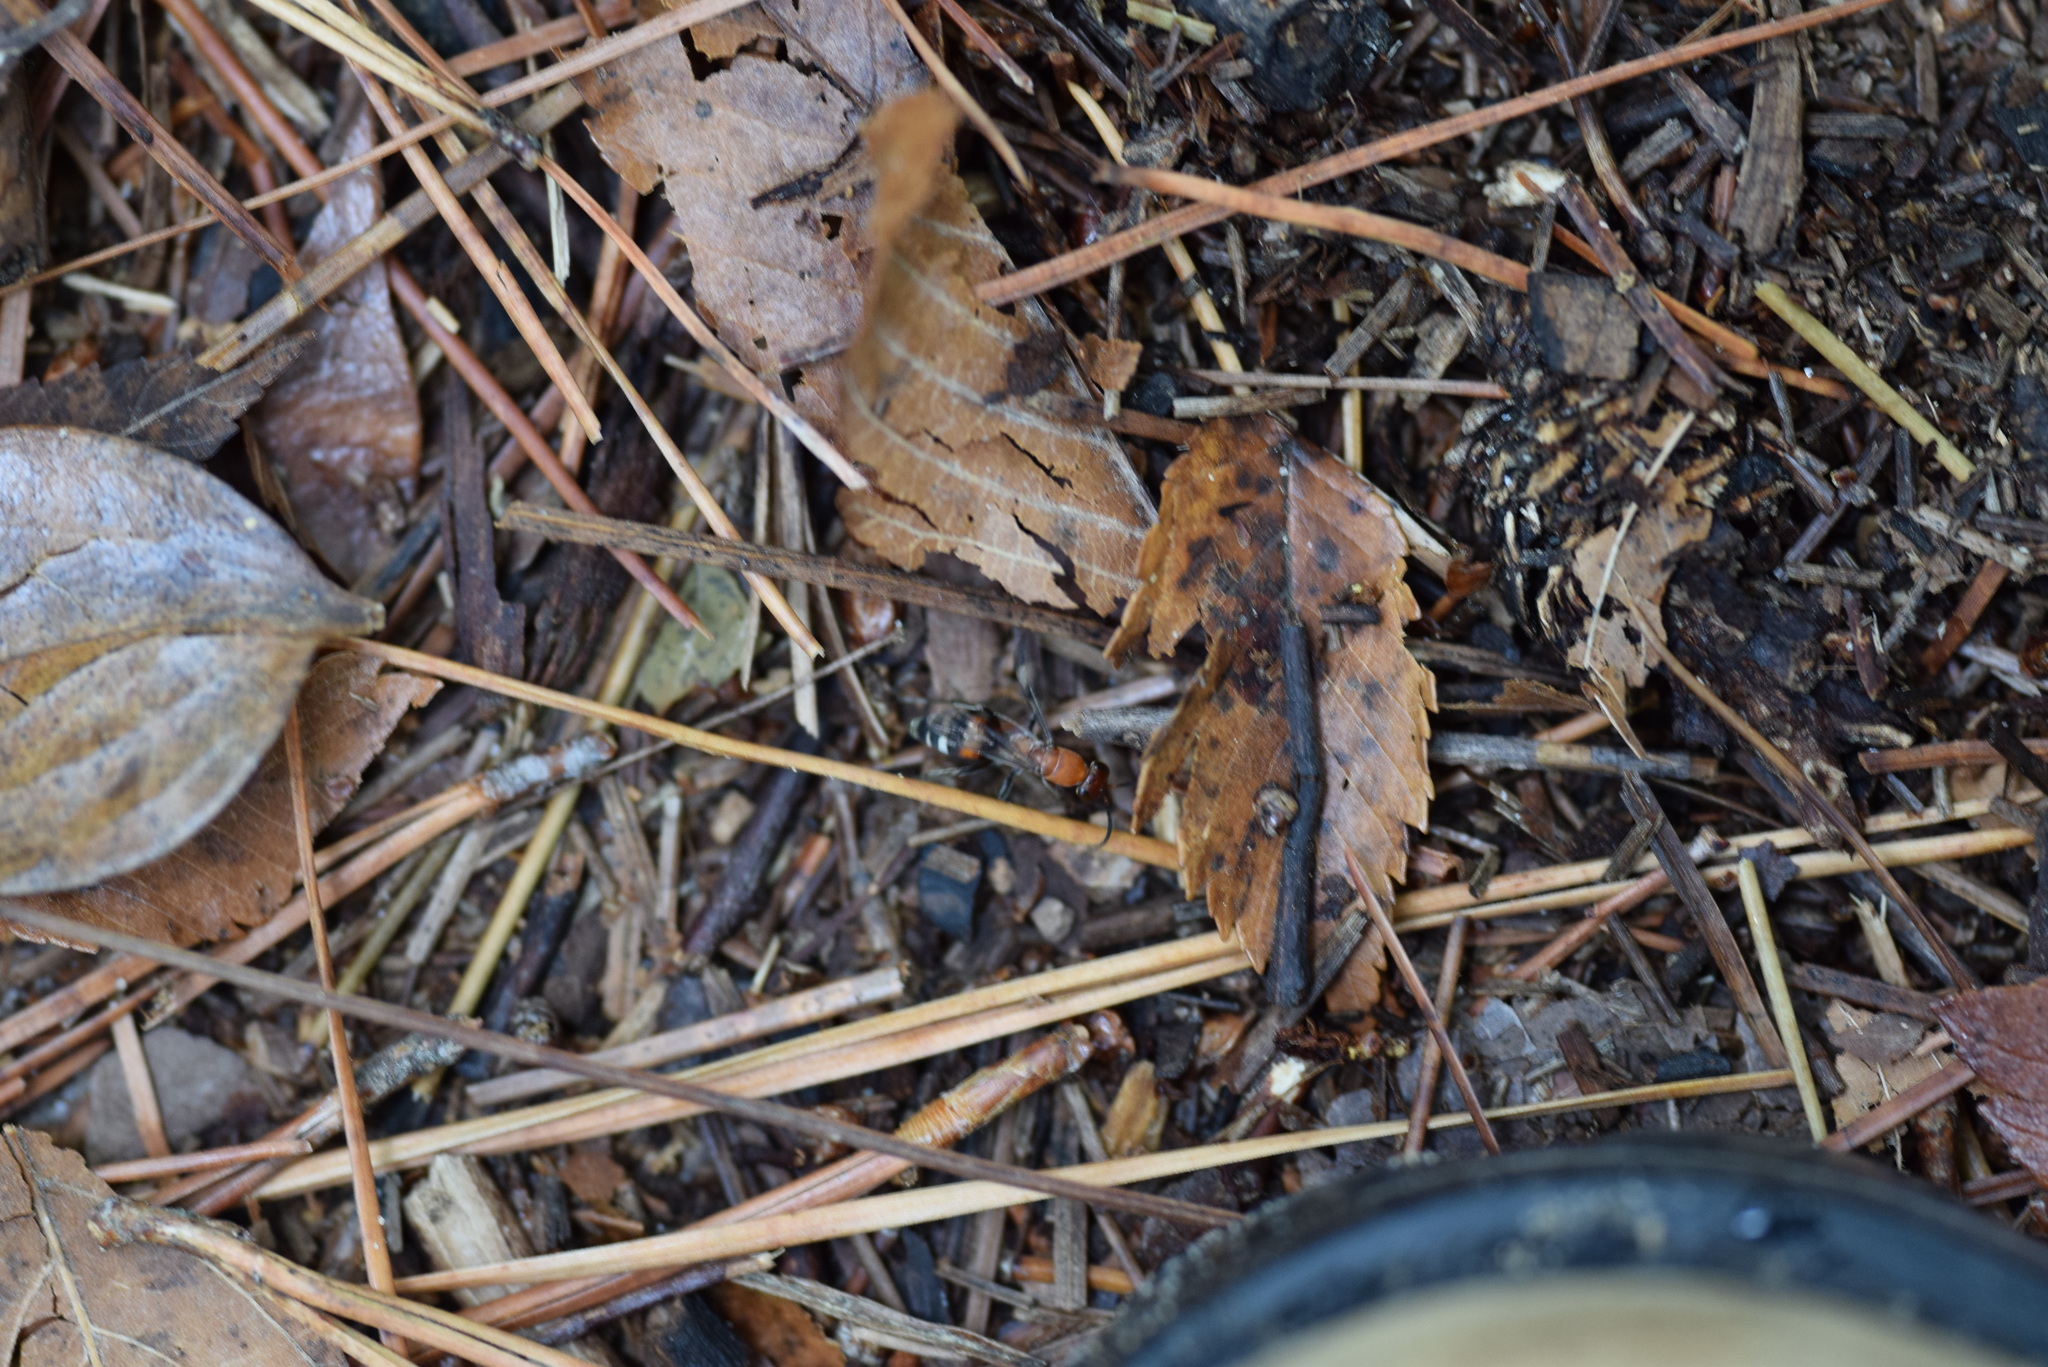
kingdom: Animalia
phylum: Arthropoda
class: Insecta
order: Hymenoptera
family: Pompilidae
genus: Psorthaspis
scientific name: Psorthaspis legata
